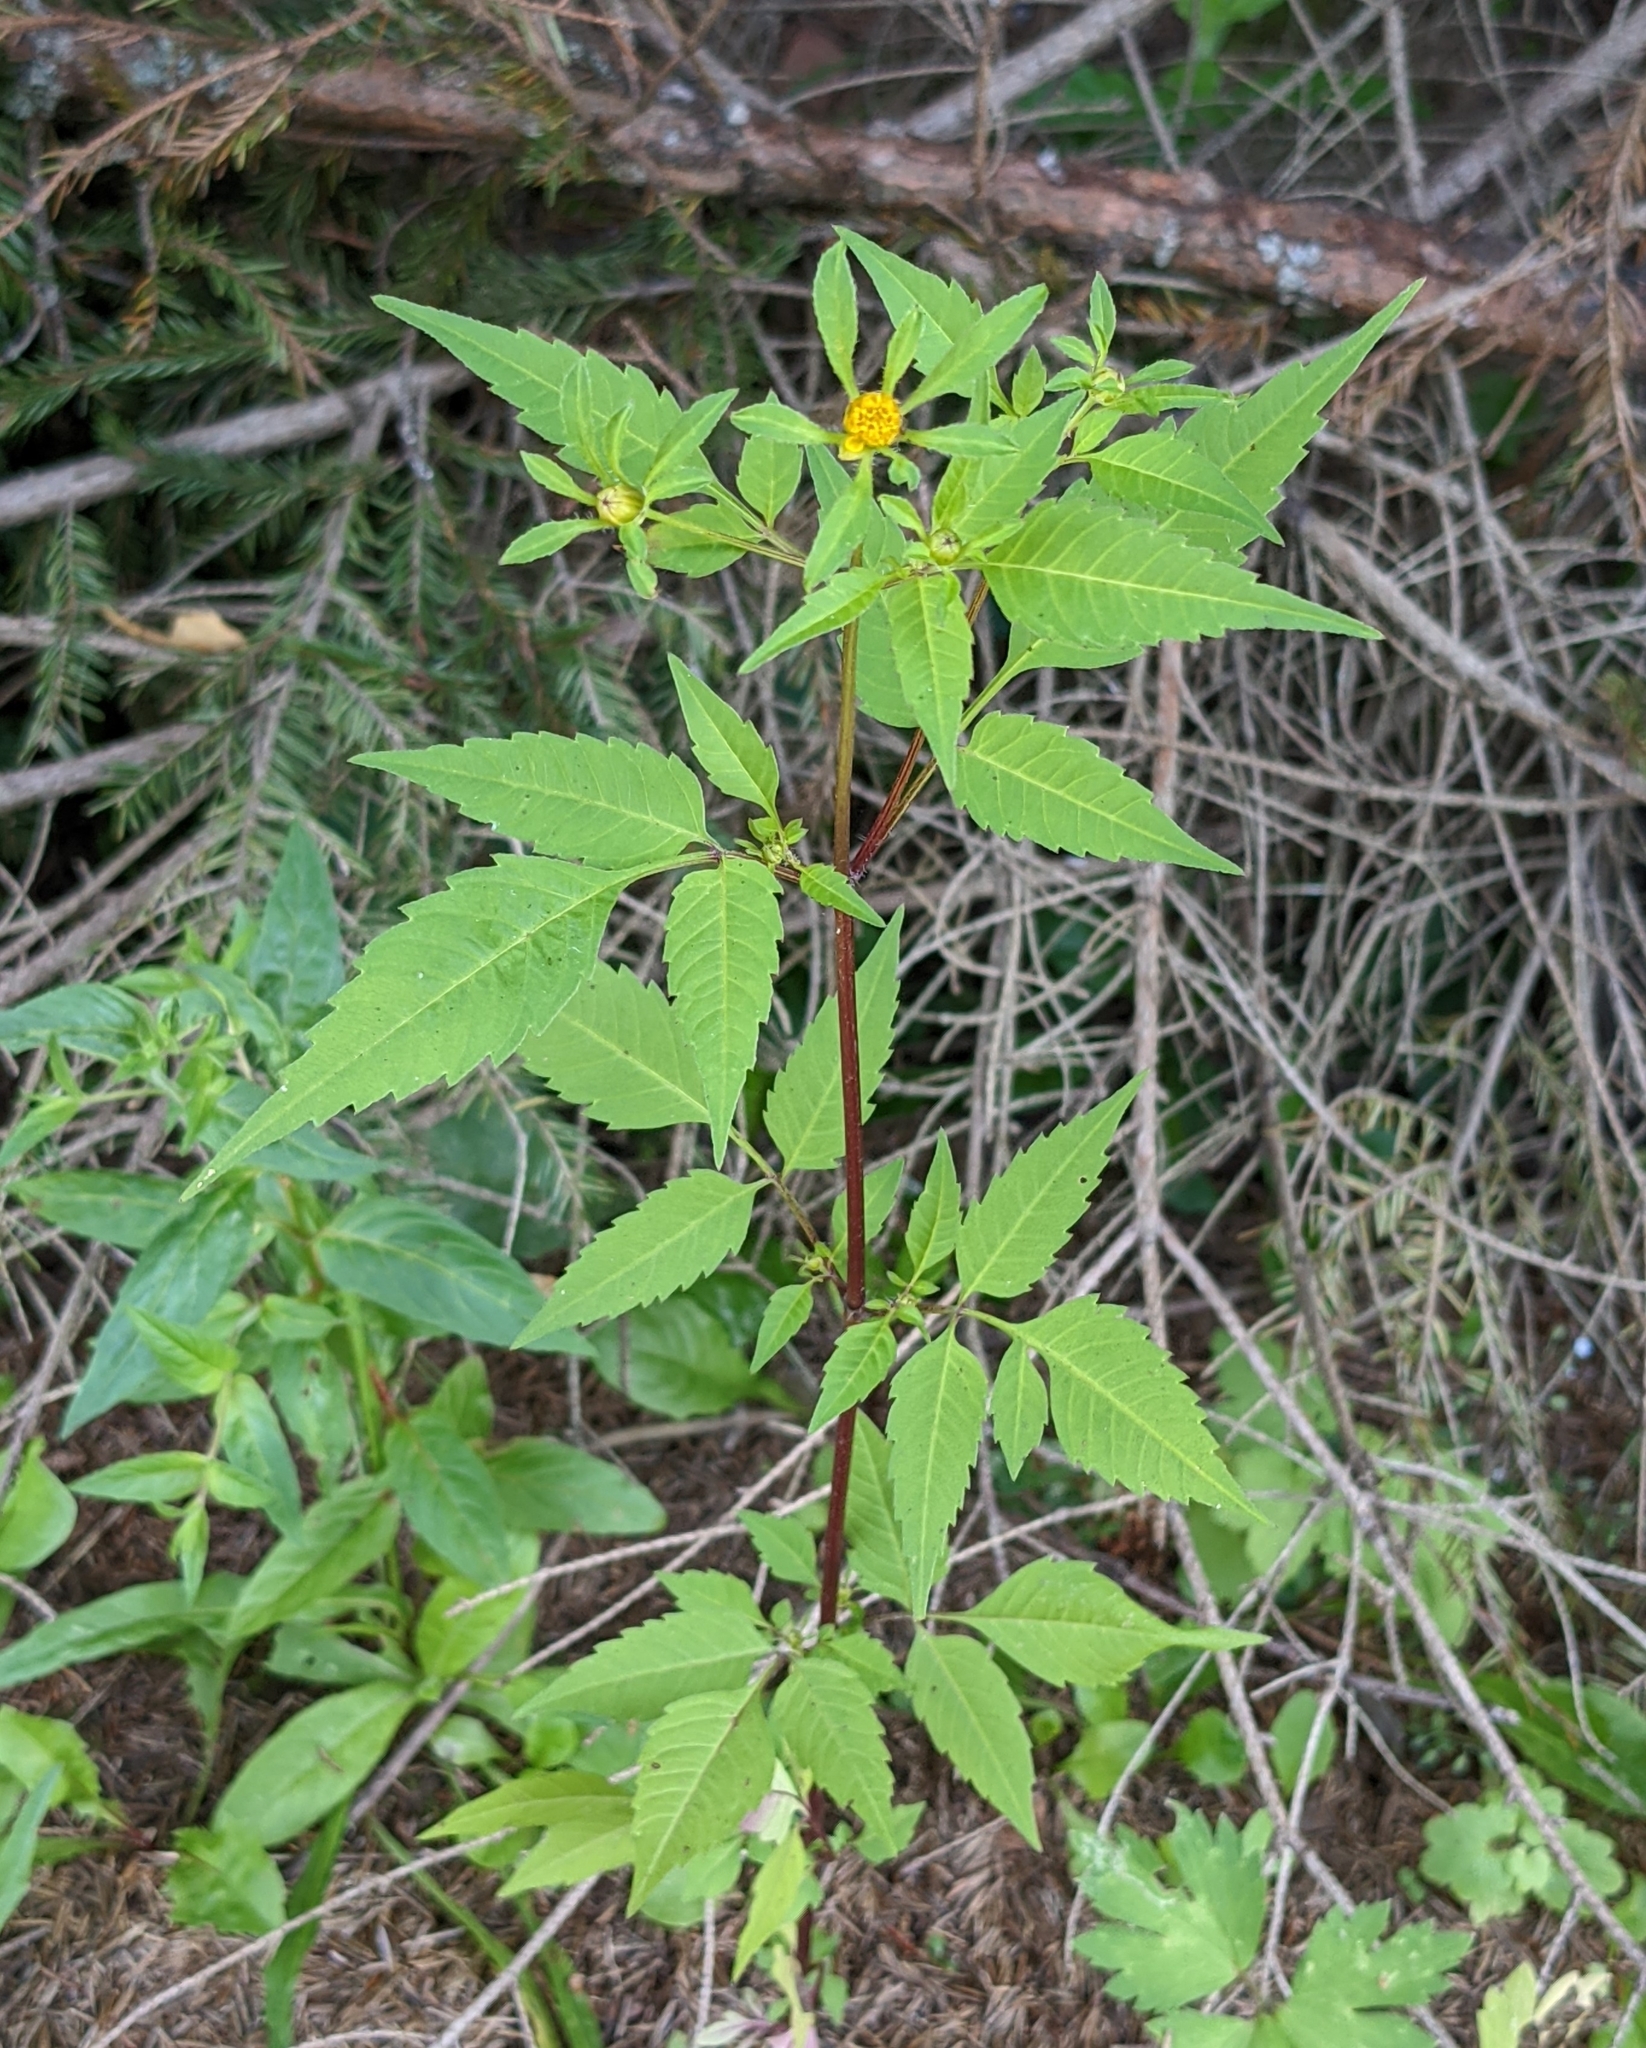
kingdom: Plantae
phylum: Tracheophyta
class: Magnoliopsida
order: Asterales
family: Asteraceae
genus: Bidens
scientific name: Bidens frondosa
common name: Beggarticks
